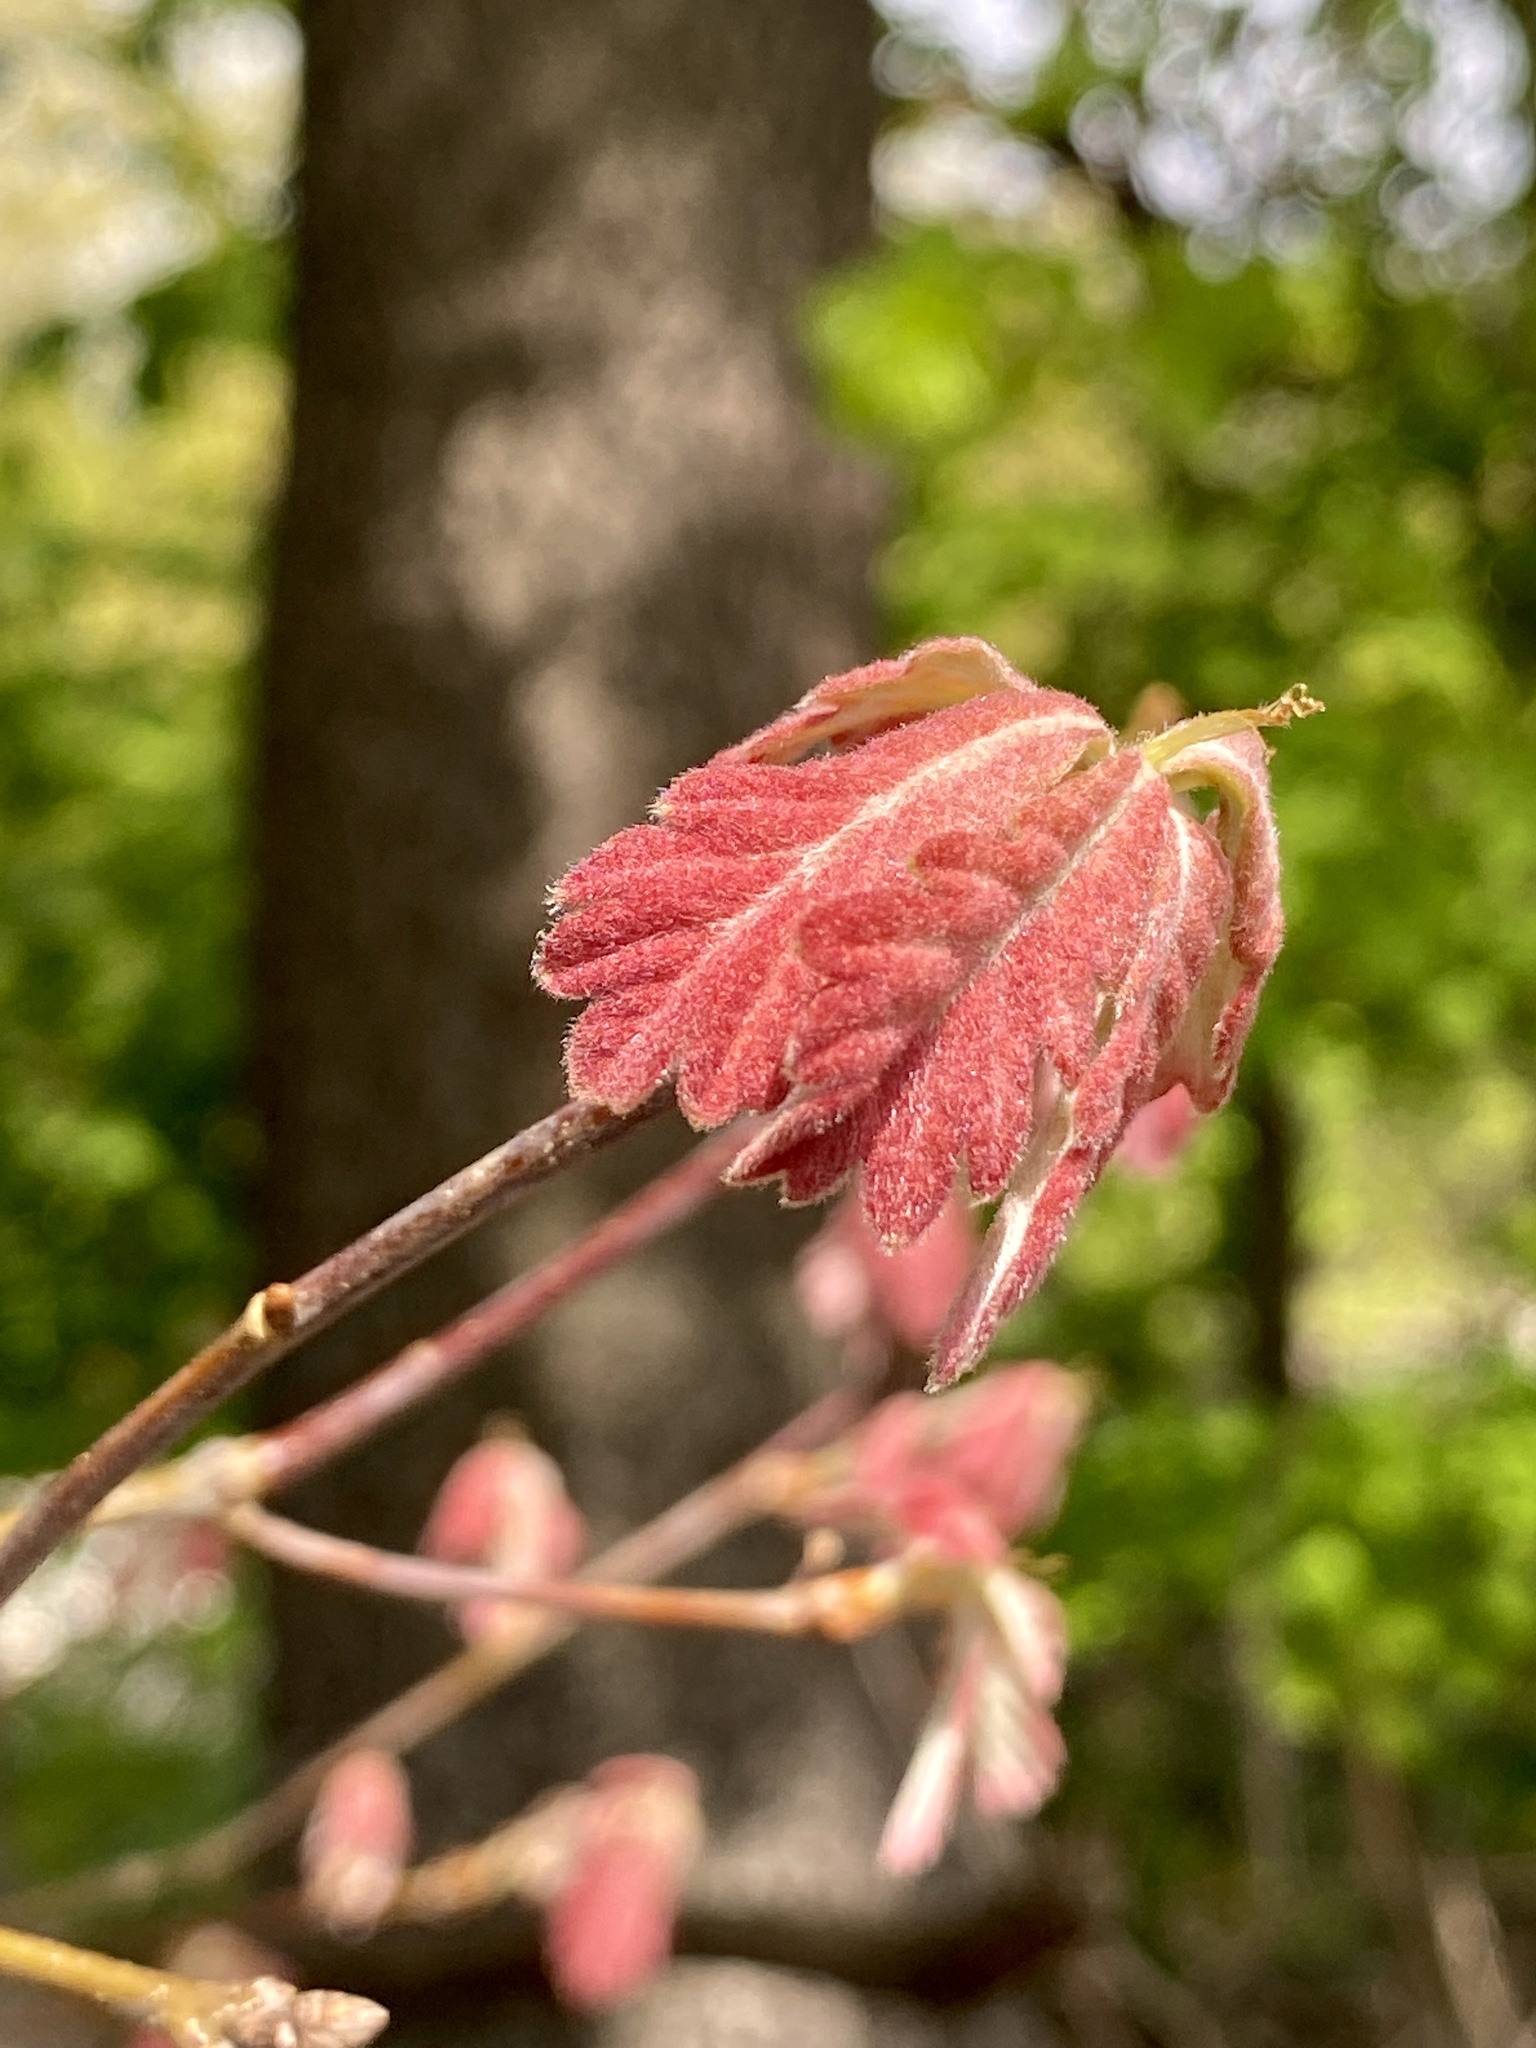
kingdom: Plantae
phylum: Tracheophyta
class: Magnoliopsida
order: Fagales
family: Fagaceae
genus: Quercus
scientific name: Quercus alba
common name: White oak
